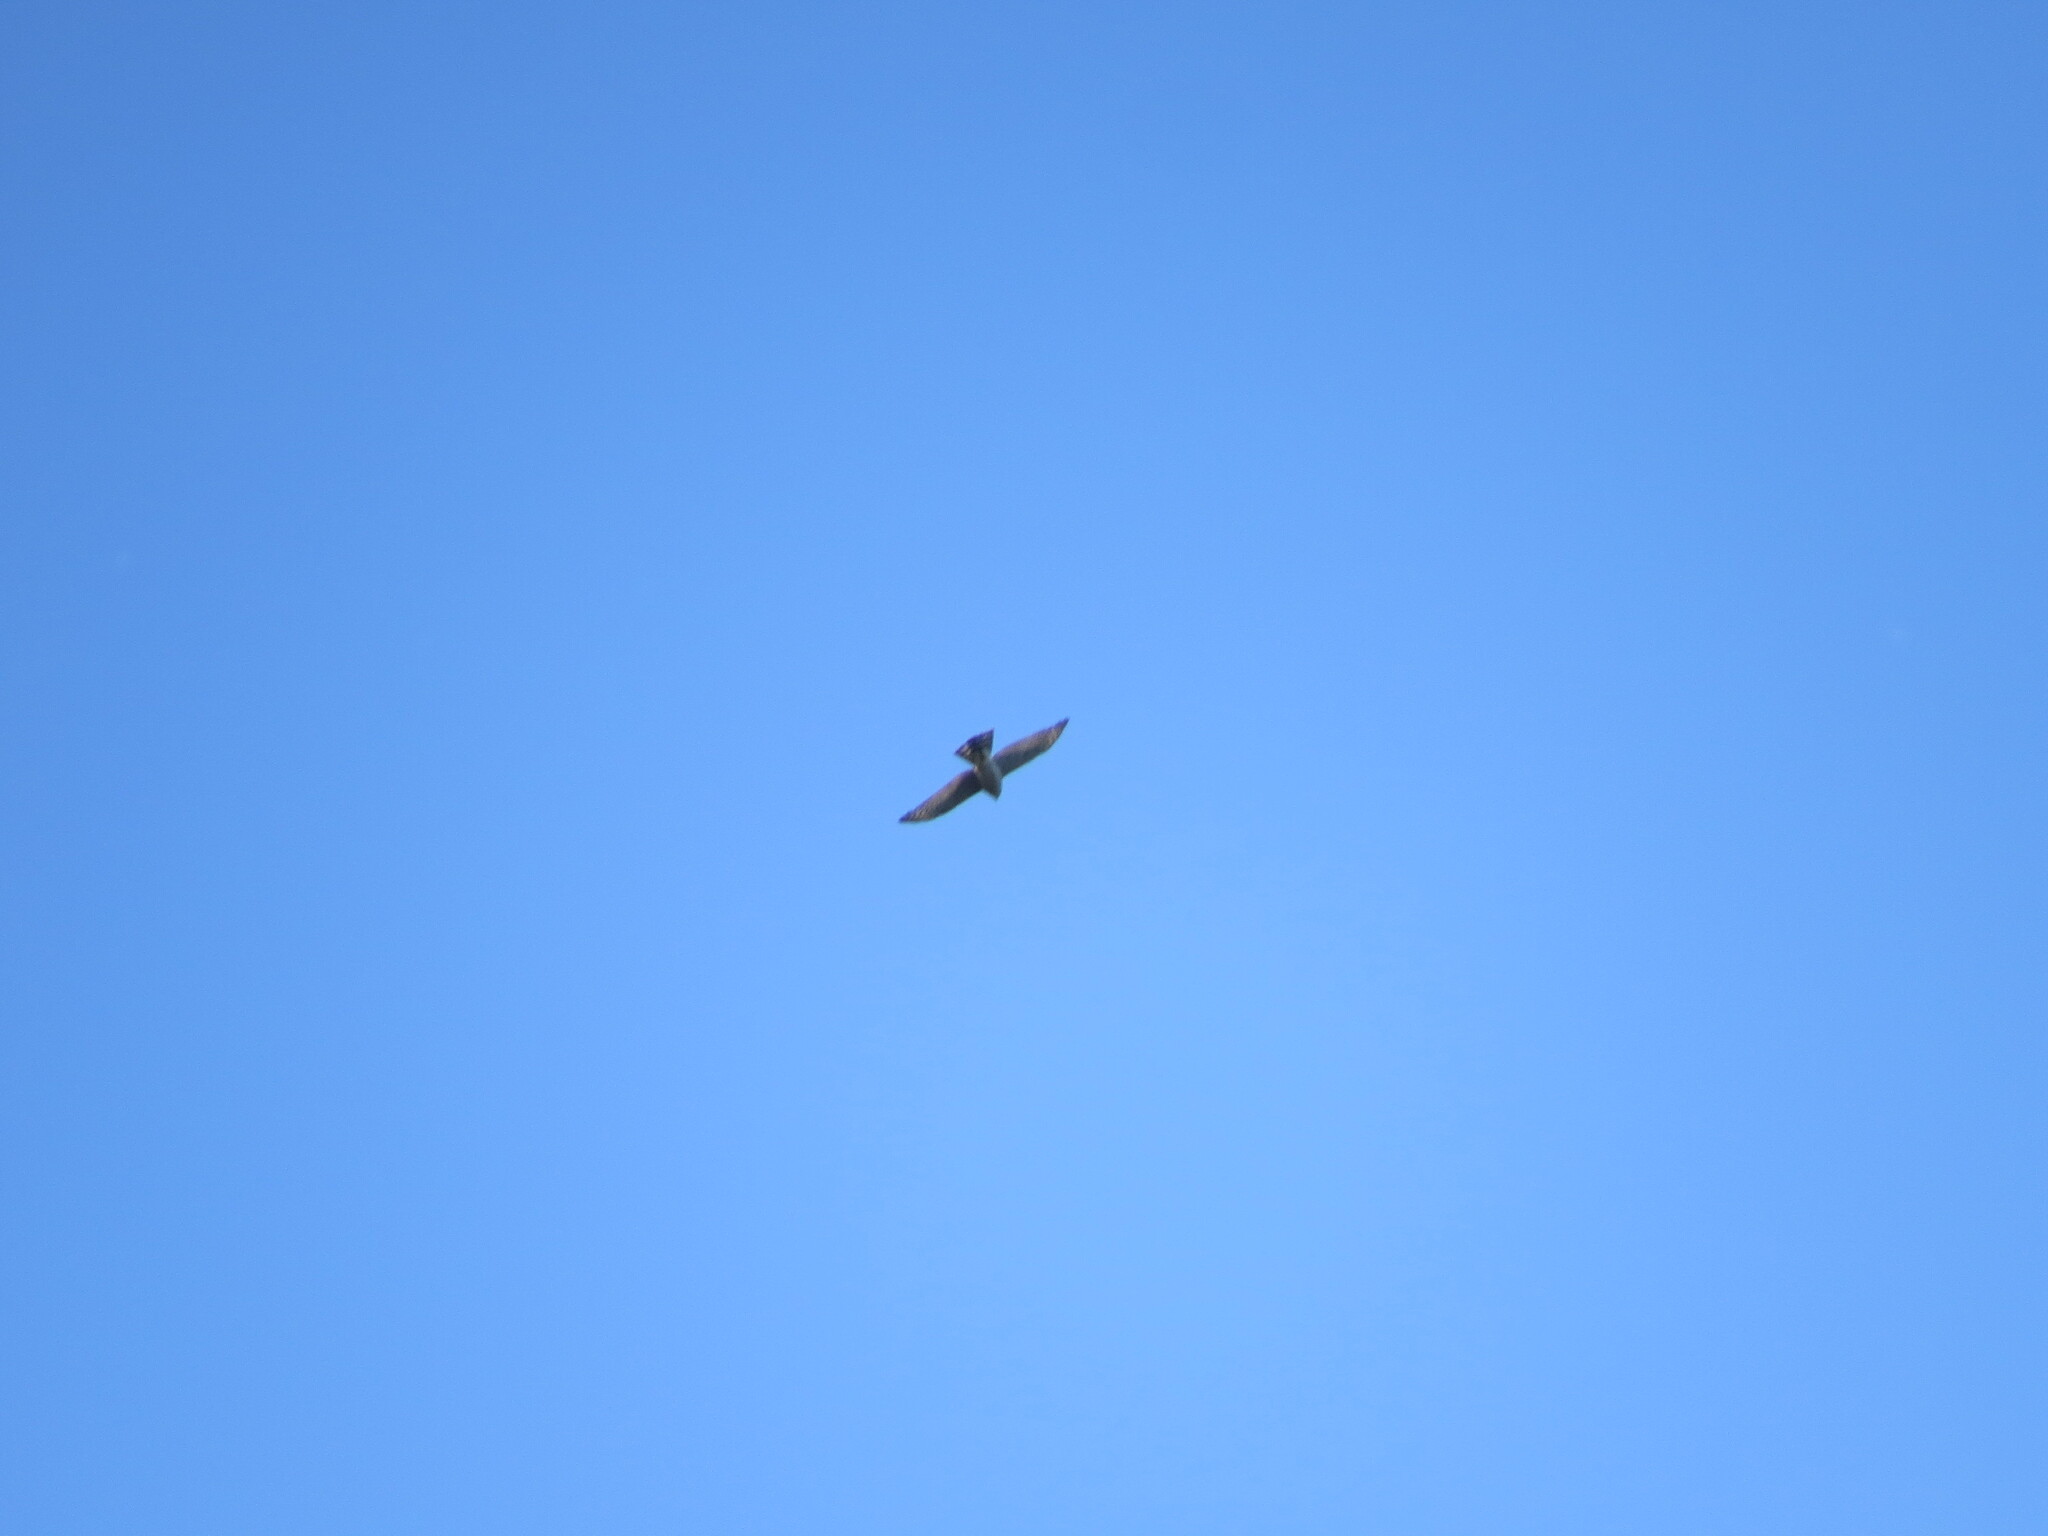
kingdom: Animalia
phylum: Chordata
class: Aves
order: Accipitriformes
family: Accipitridae
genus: Accipiter
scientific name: Accipiter nisus
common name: Eurasian sparrowhawk
